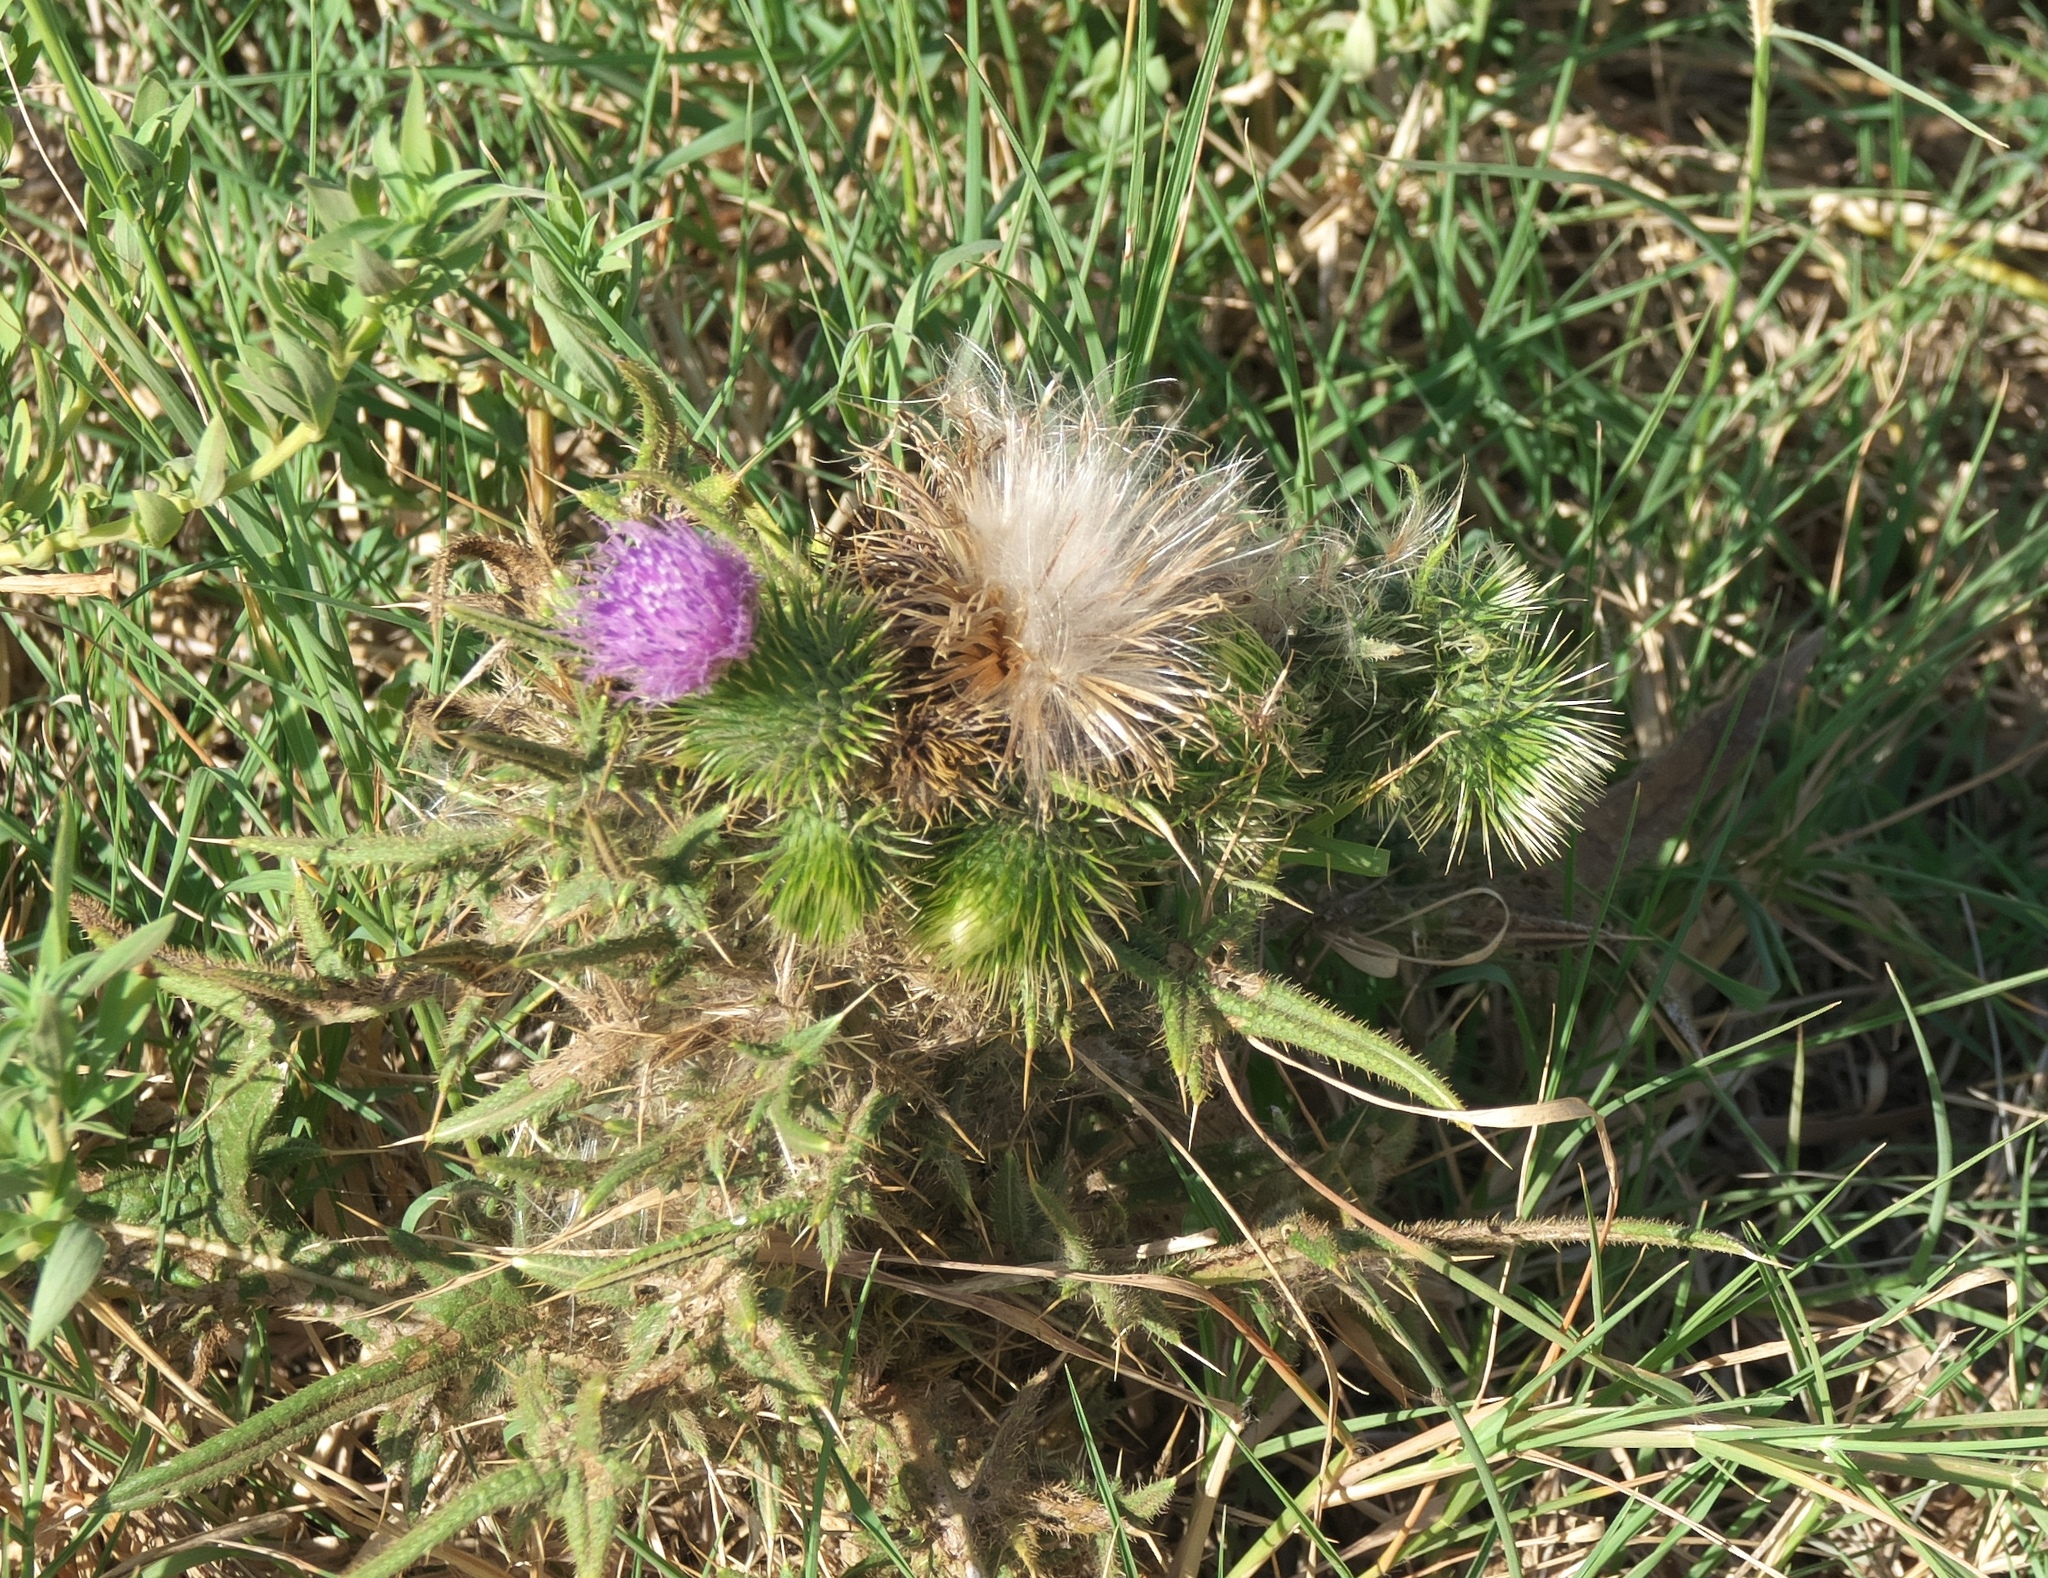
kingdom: Plantae
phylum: Tracheophyta
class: Magnoliopsida
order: Asterales
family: Asteraceae
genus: Cirsium
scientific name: Cirsium vulgare
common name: Bull thistle
